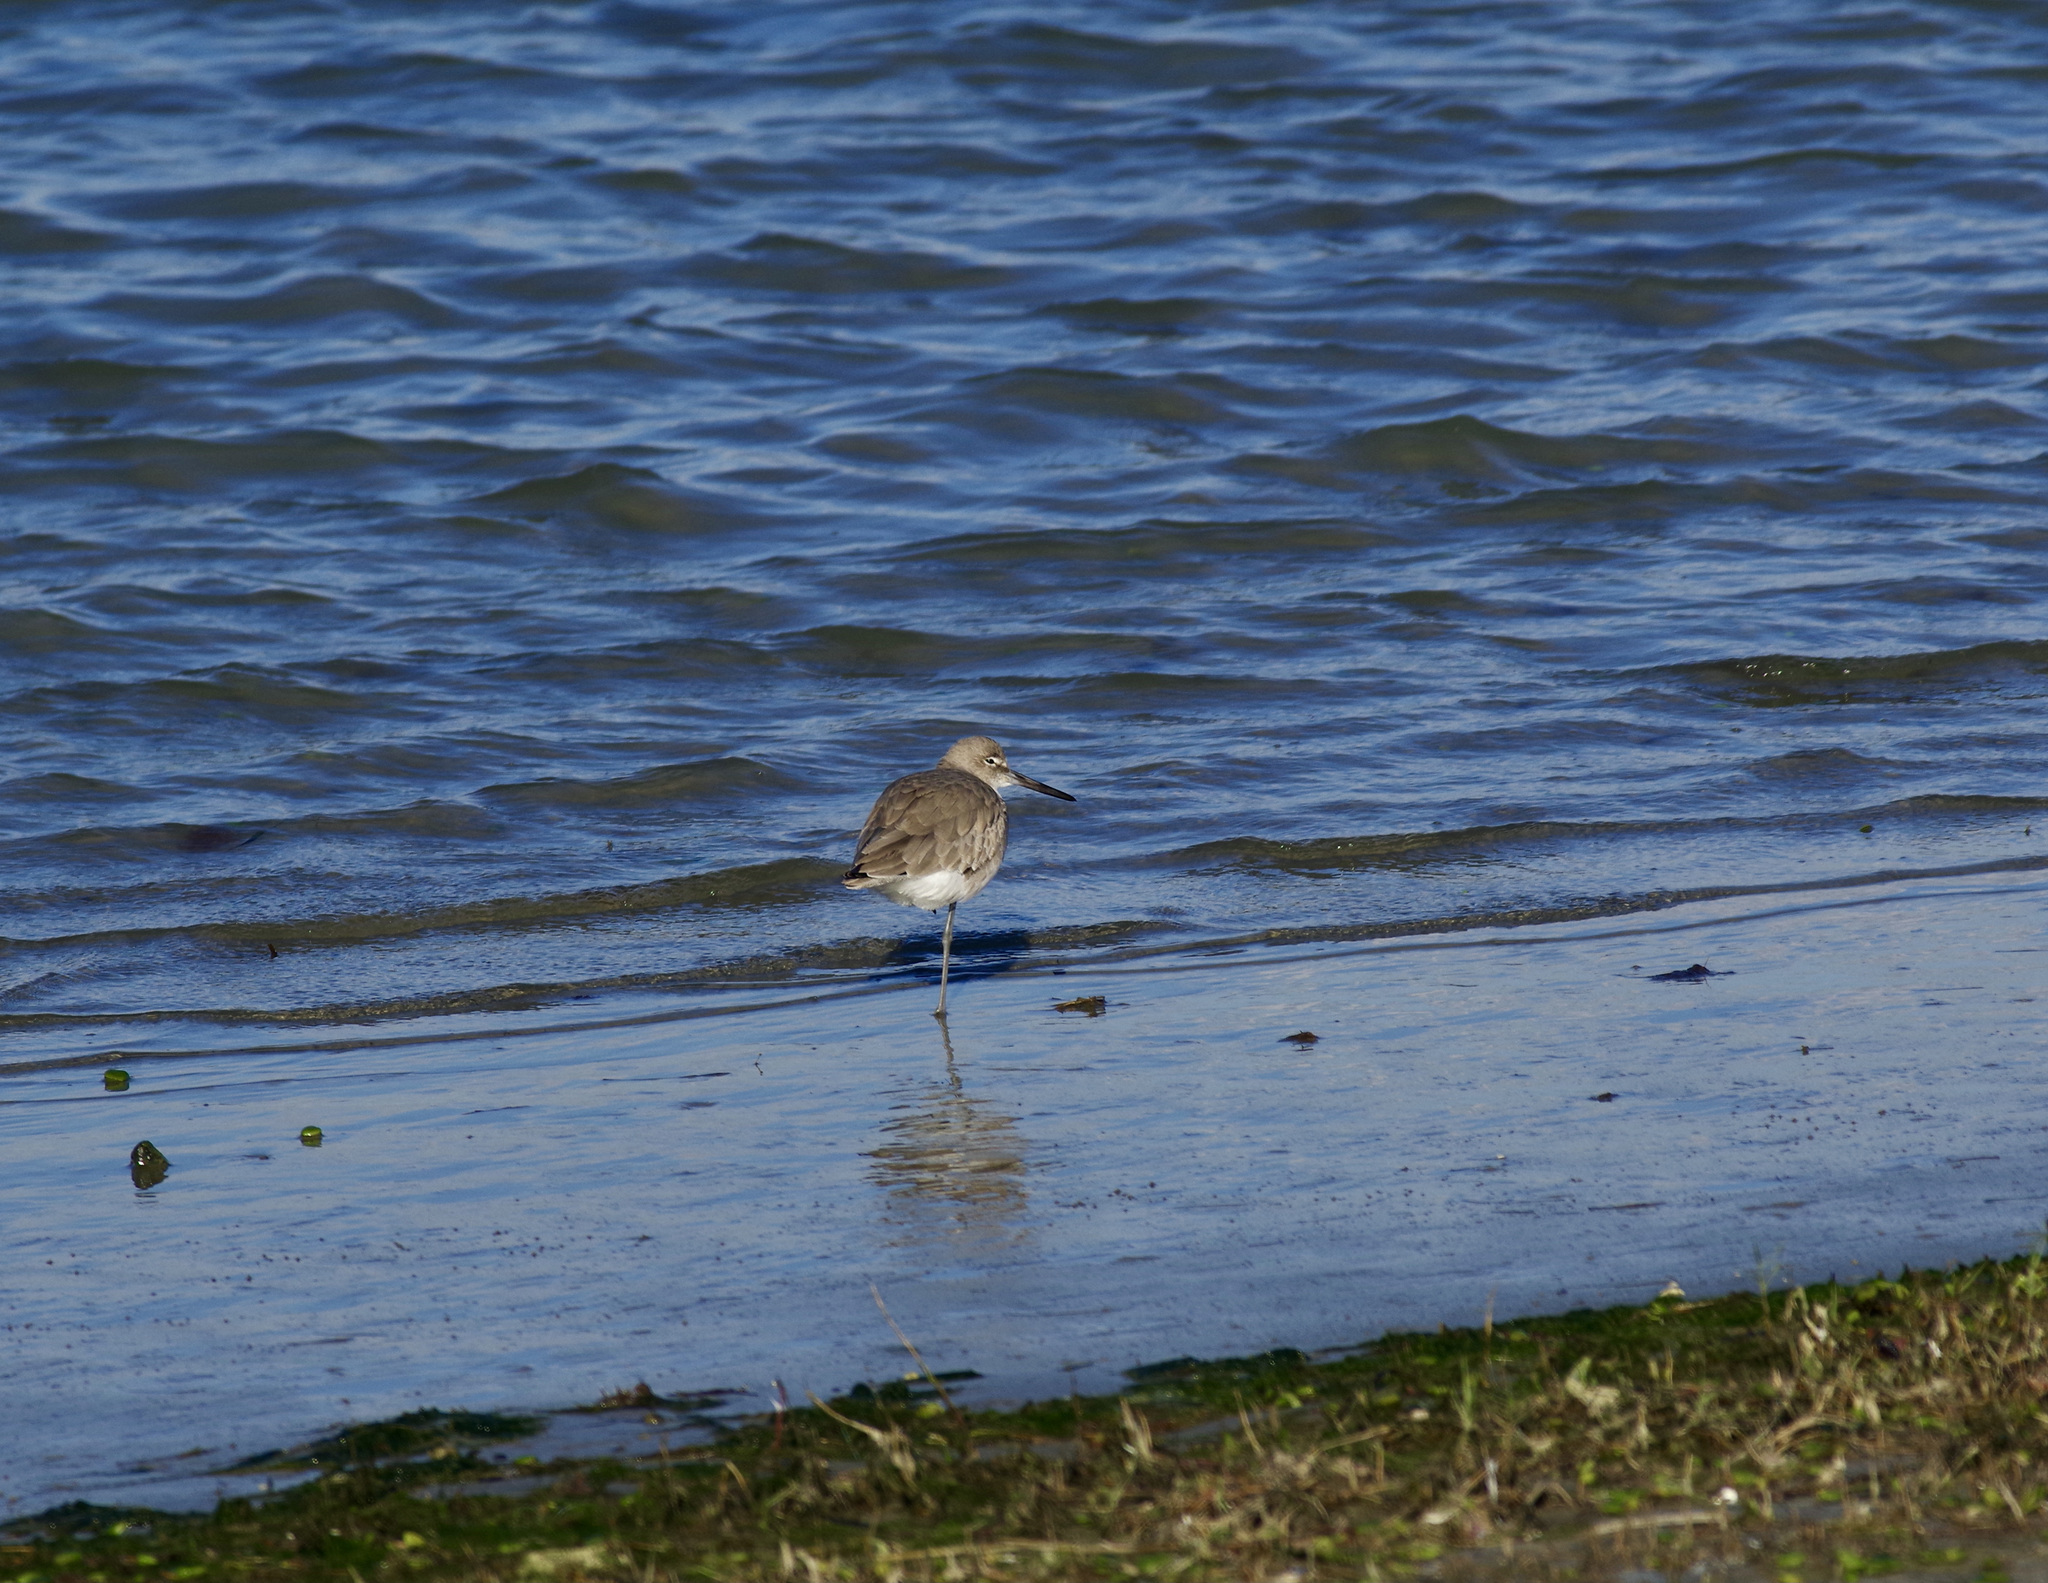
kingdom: Animalia
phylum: Chordata
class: Aves
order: Charadriiformes
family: Scolopacidae
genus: Tringa
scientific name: Tringa semipalmata
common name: Willet
